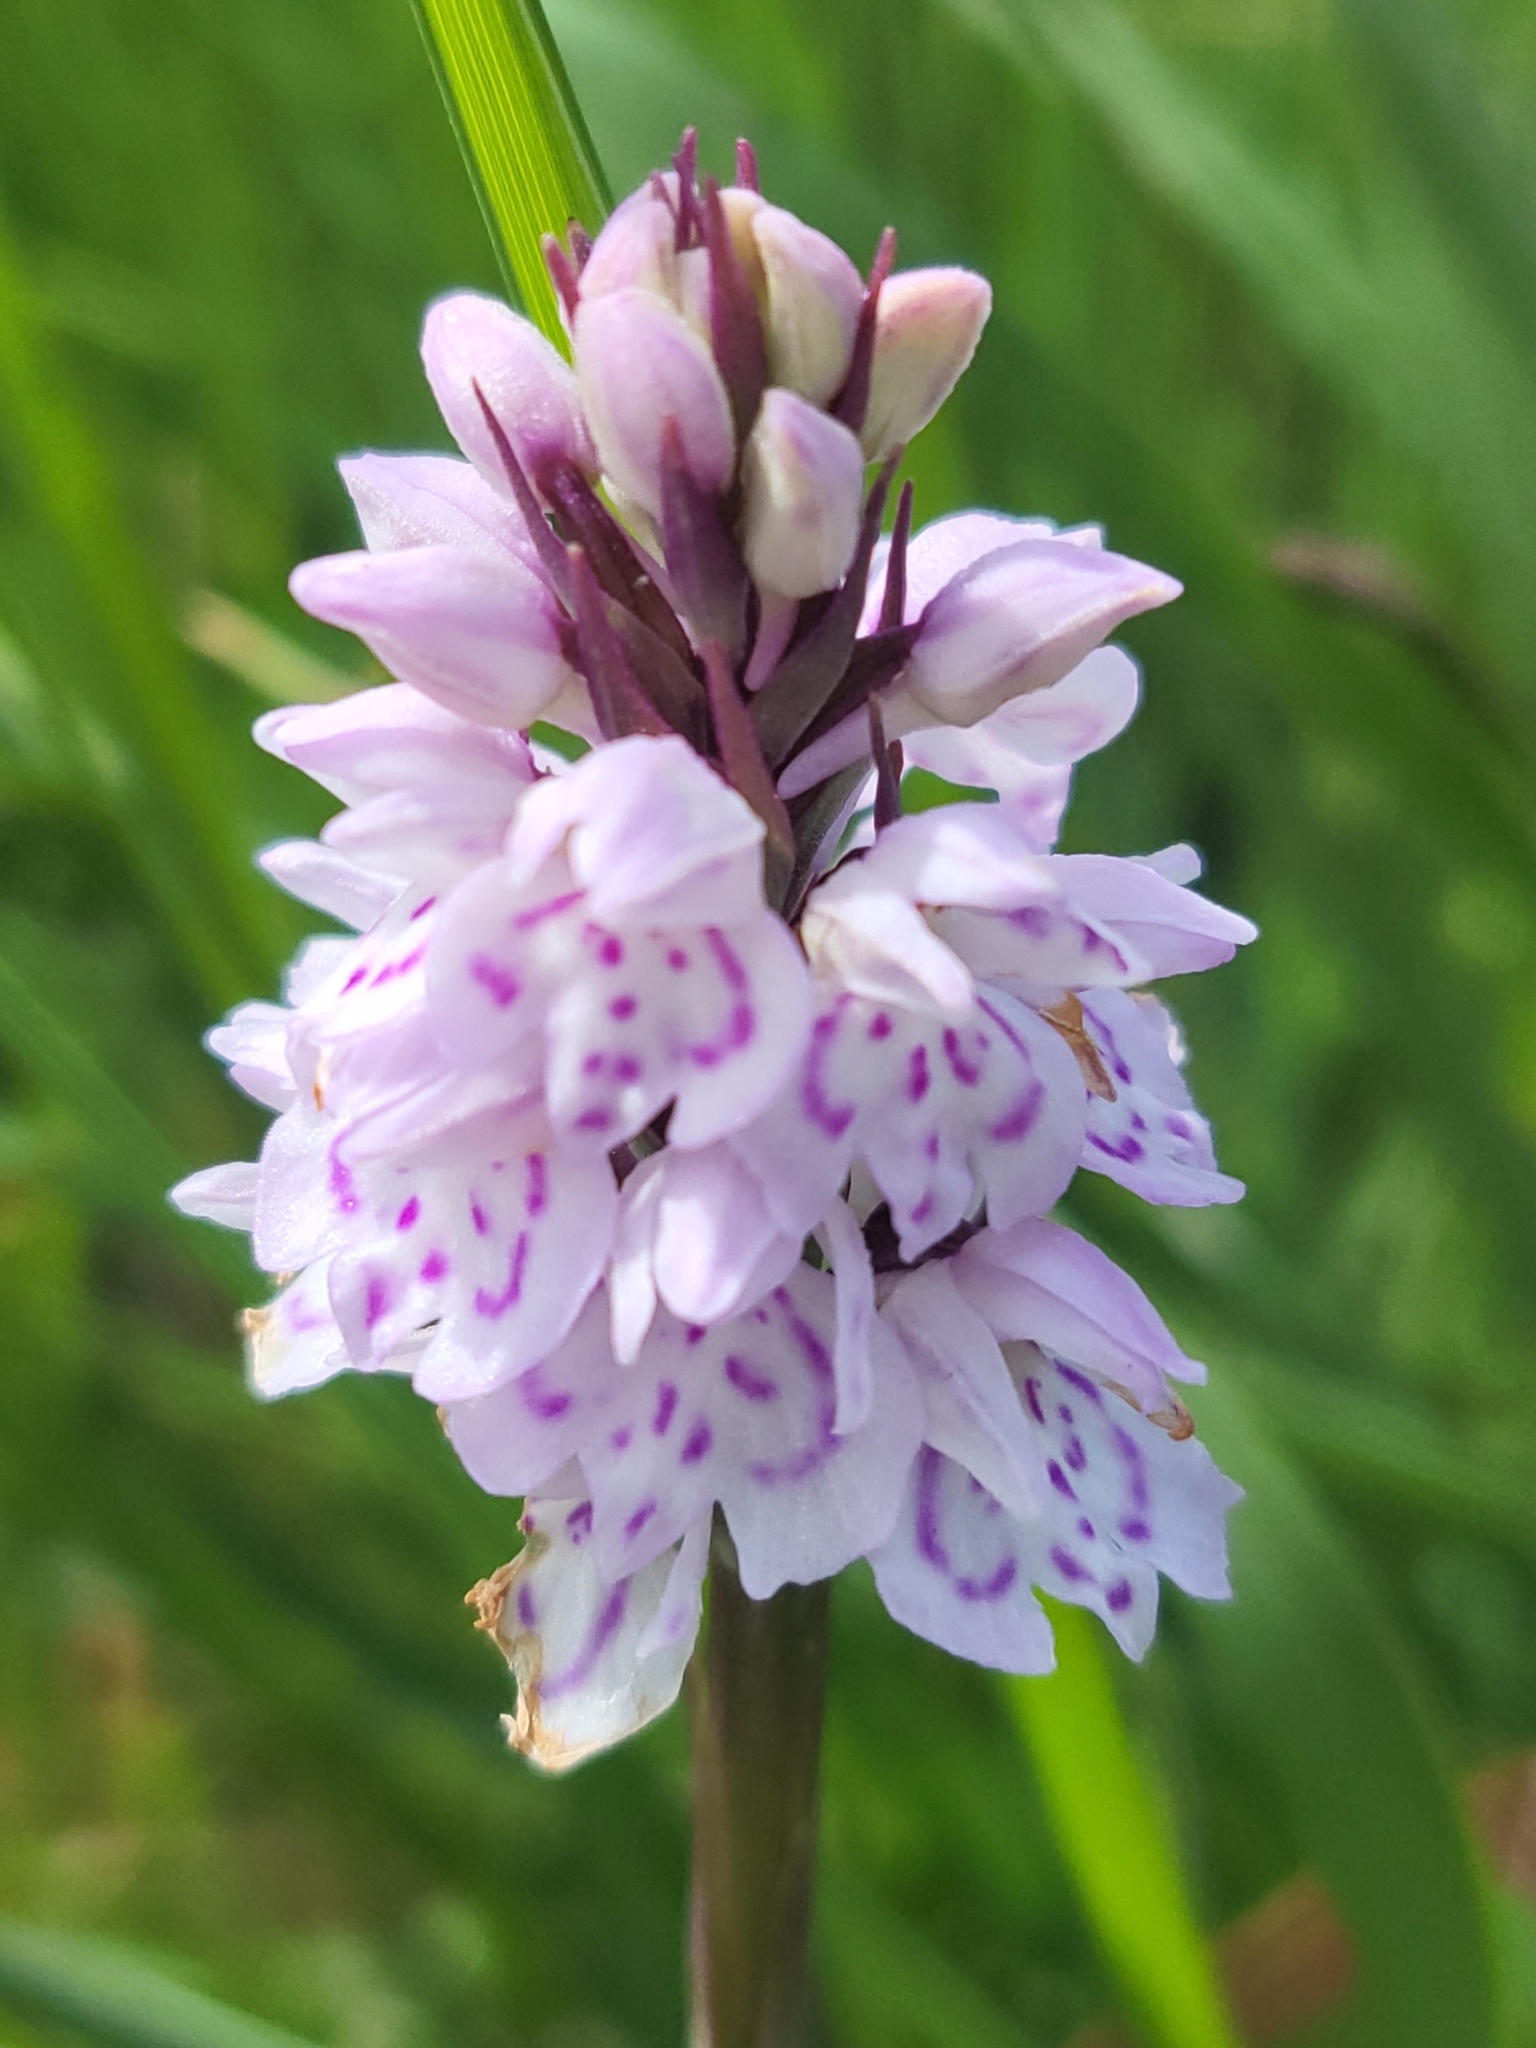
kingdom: Plantae
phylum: Tracheophyta
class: Liliopsida
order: Asparagales
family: Orchidaceae
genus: Dactylorhiza
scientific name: Dactylorhiza maculata
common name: Heath spotted-orchid
